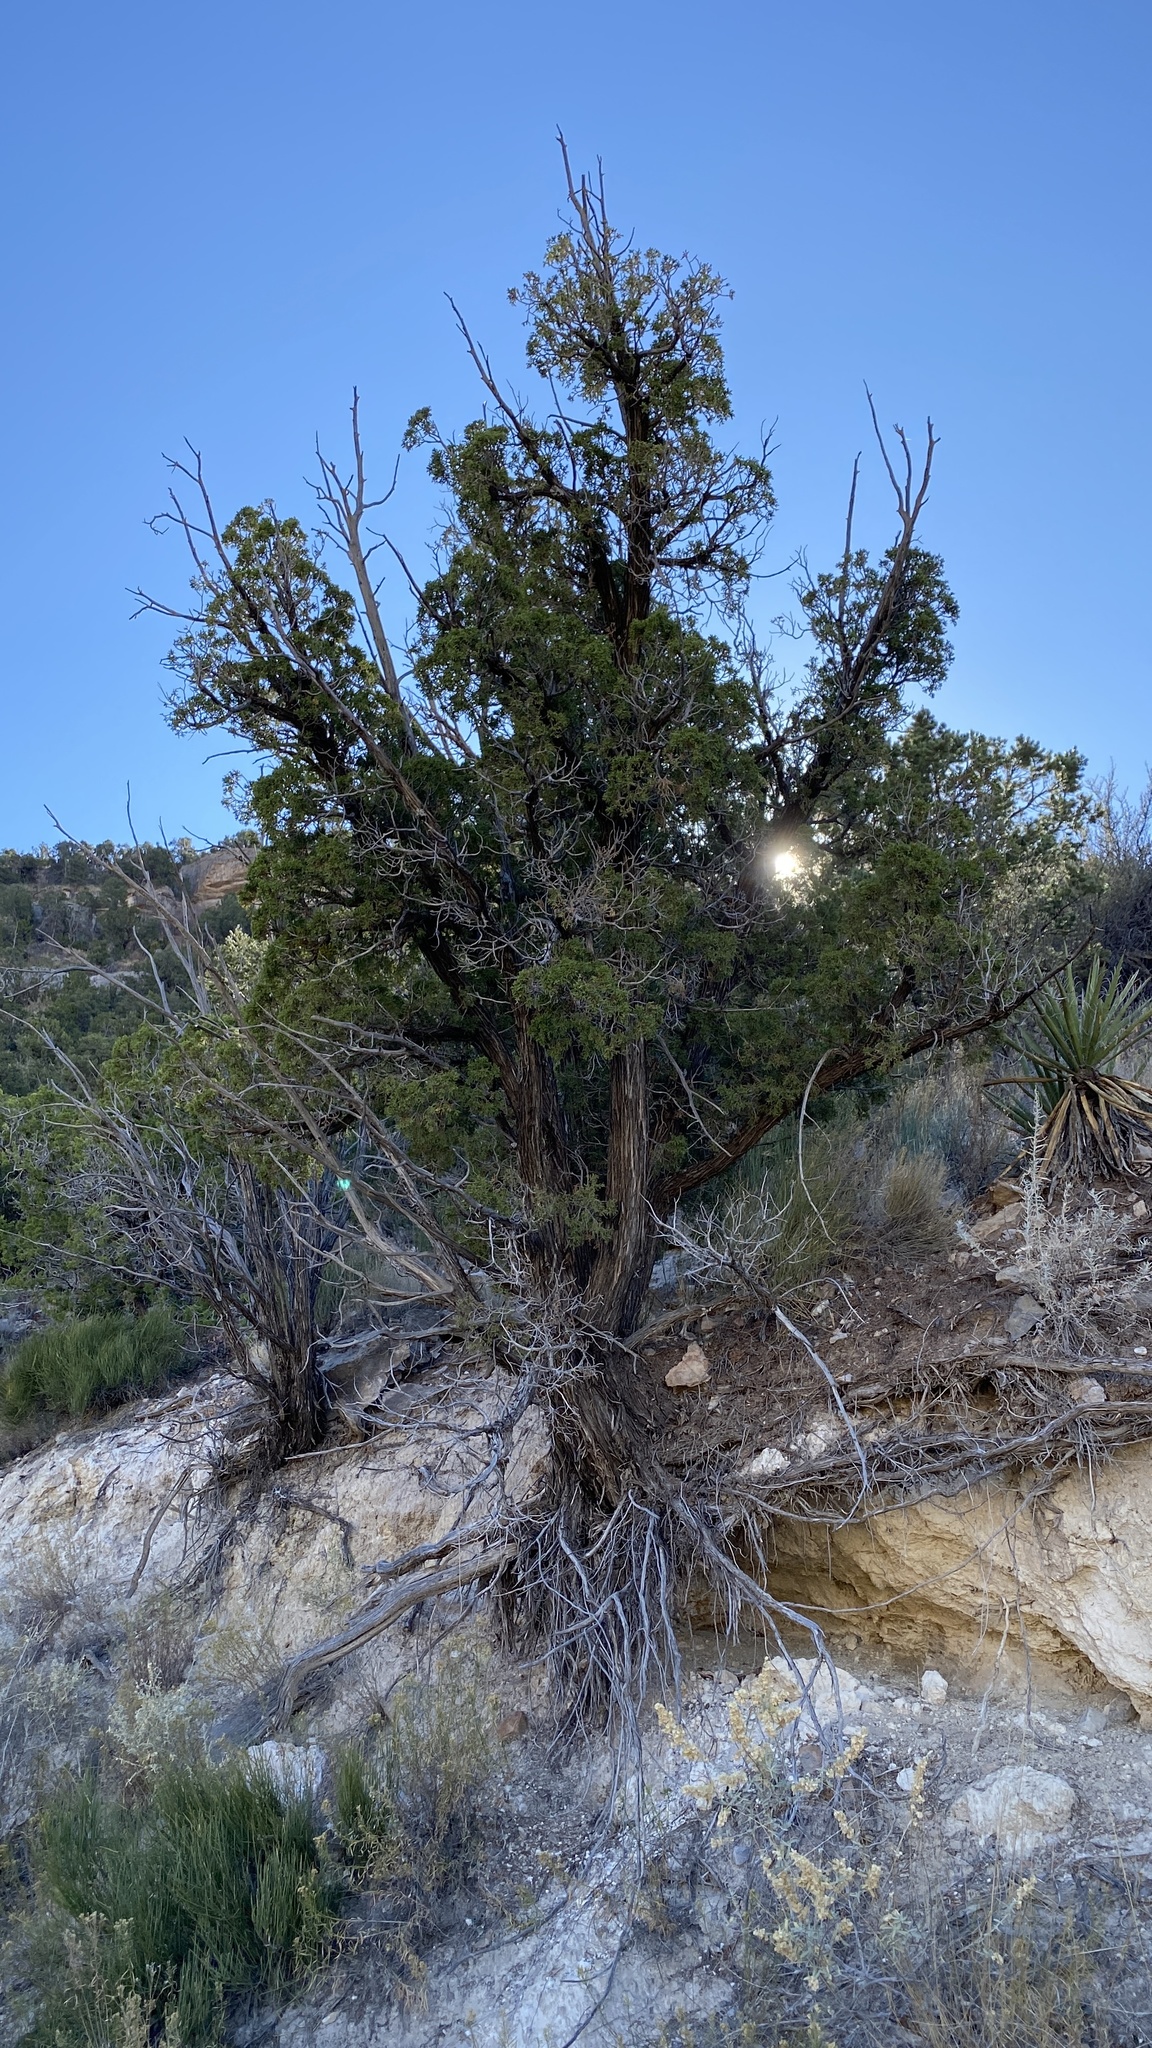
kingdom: Plantae
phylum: Tracheophyta
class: Pinopsida
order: Pinales
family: Cupressaceae
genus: Juniperus
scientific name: Juniperus monosperma
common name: One-seed juniper
